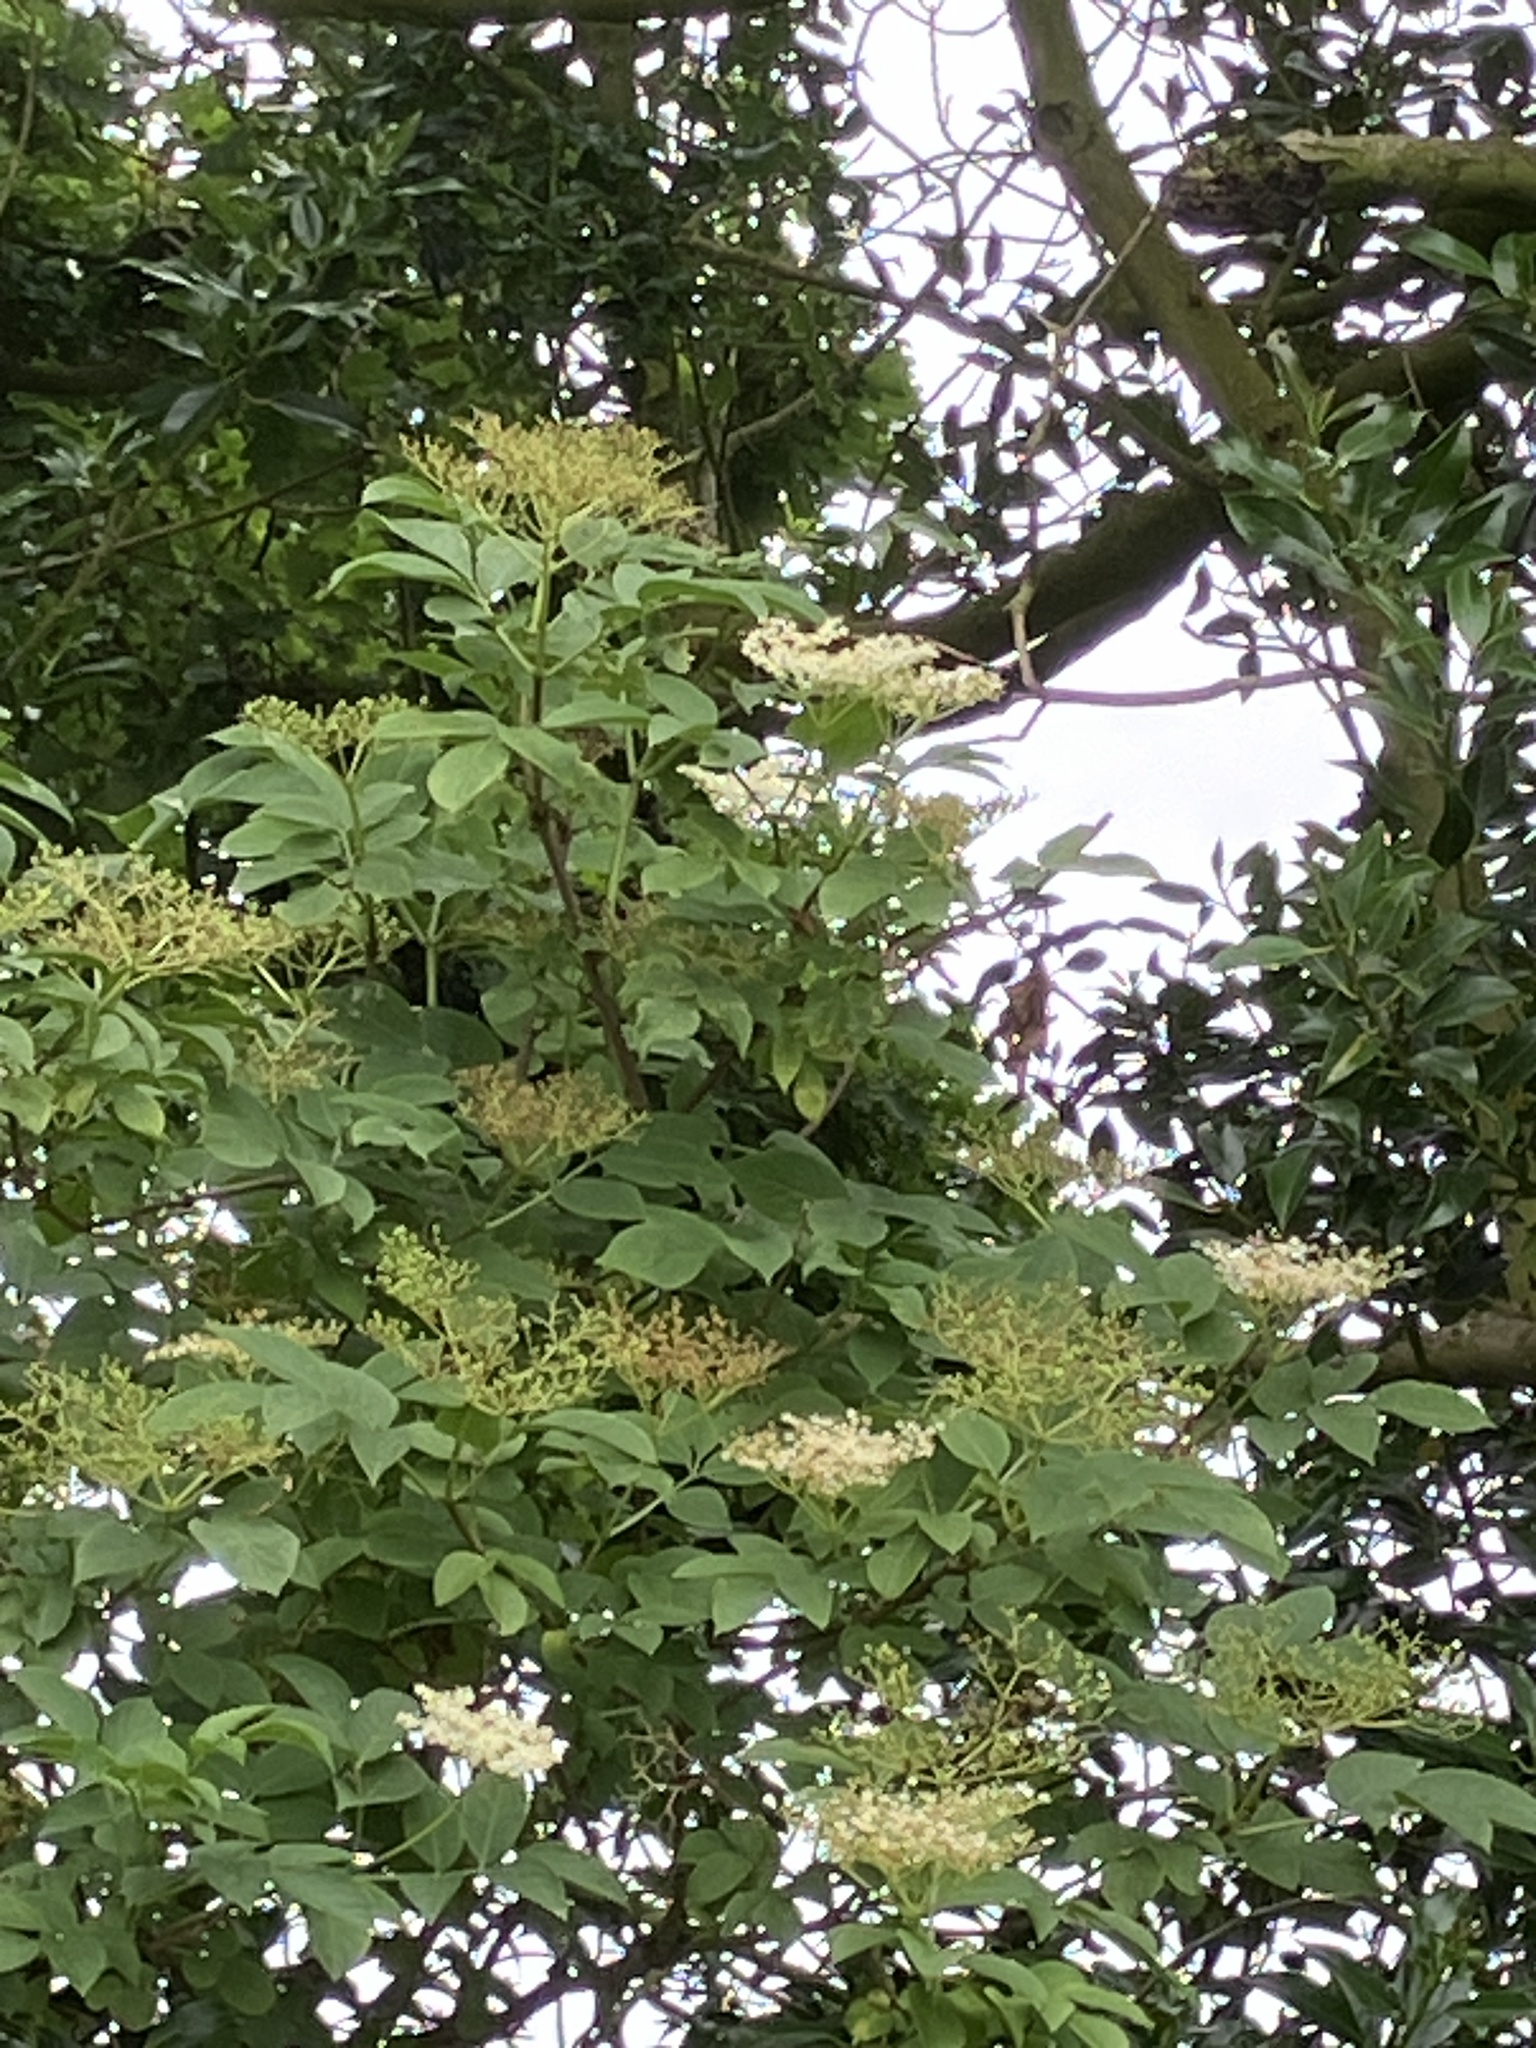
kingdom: Plantae
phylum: Tracheophyta
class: Magnoliopsida
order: Dipsacales
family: Viburnaceae
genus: Sambucus
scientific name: Sambucus nigra
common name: Elder
